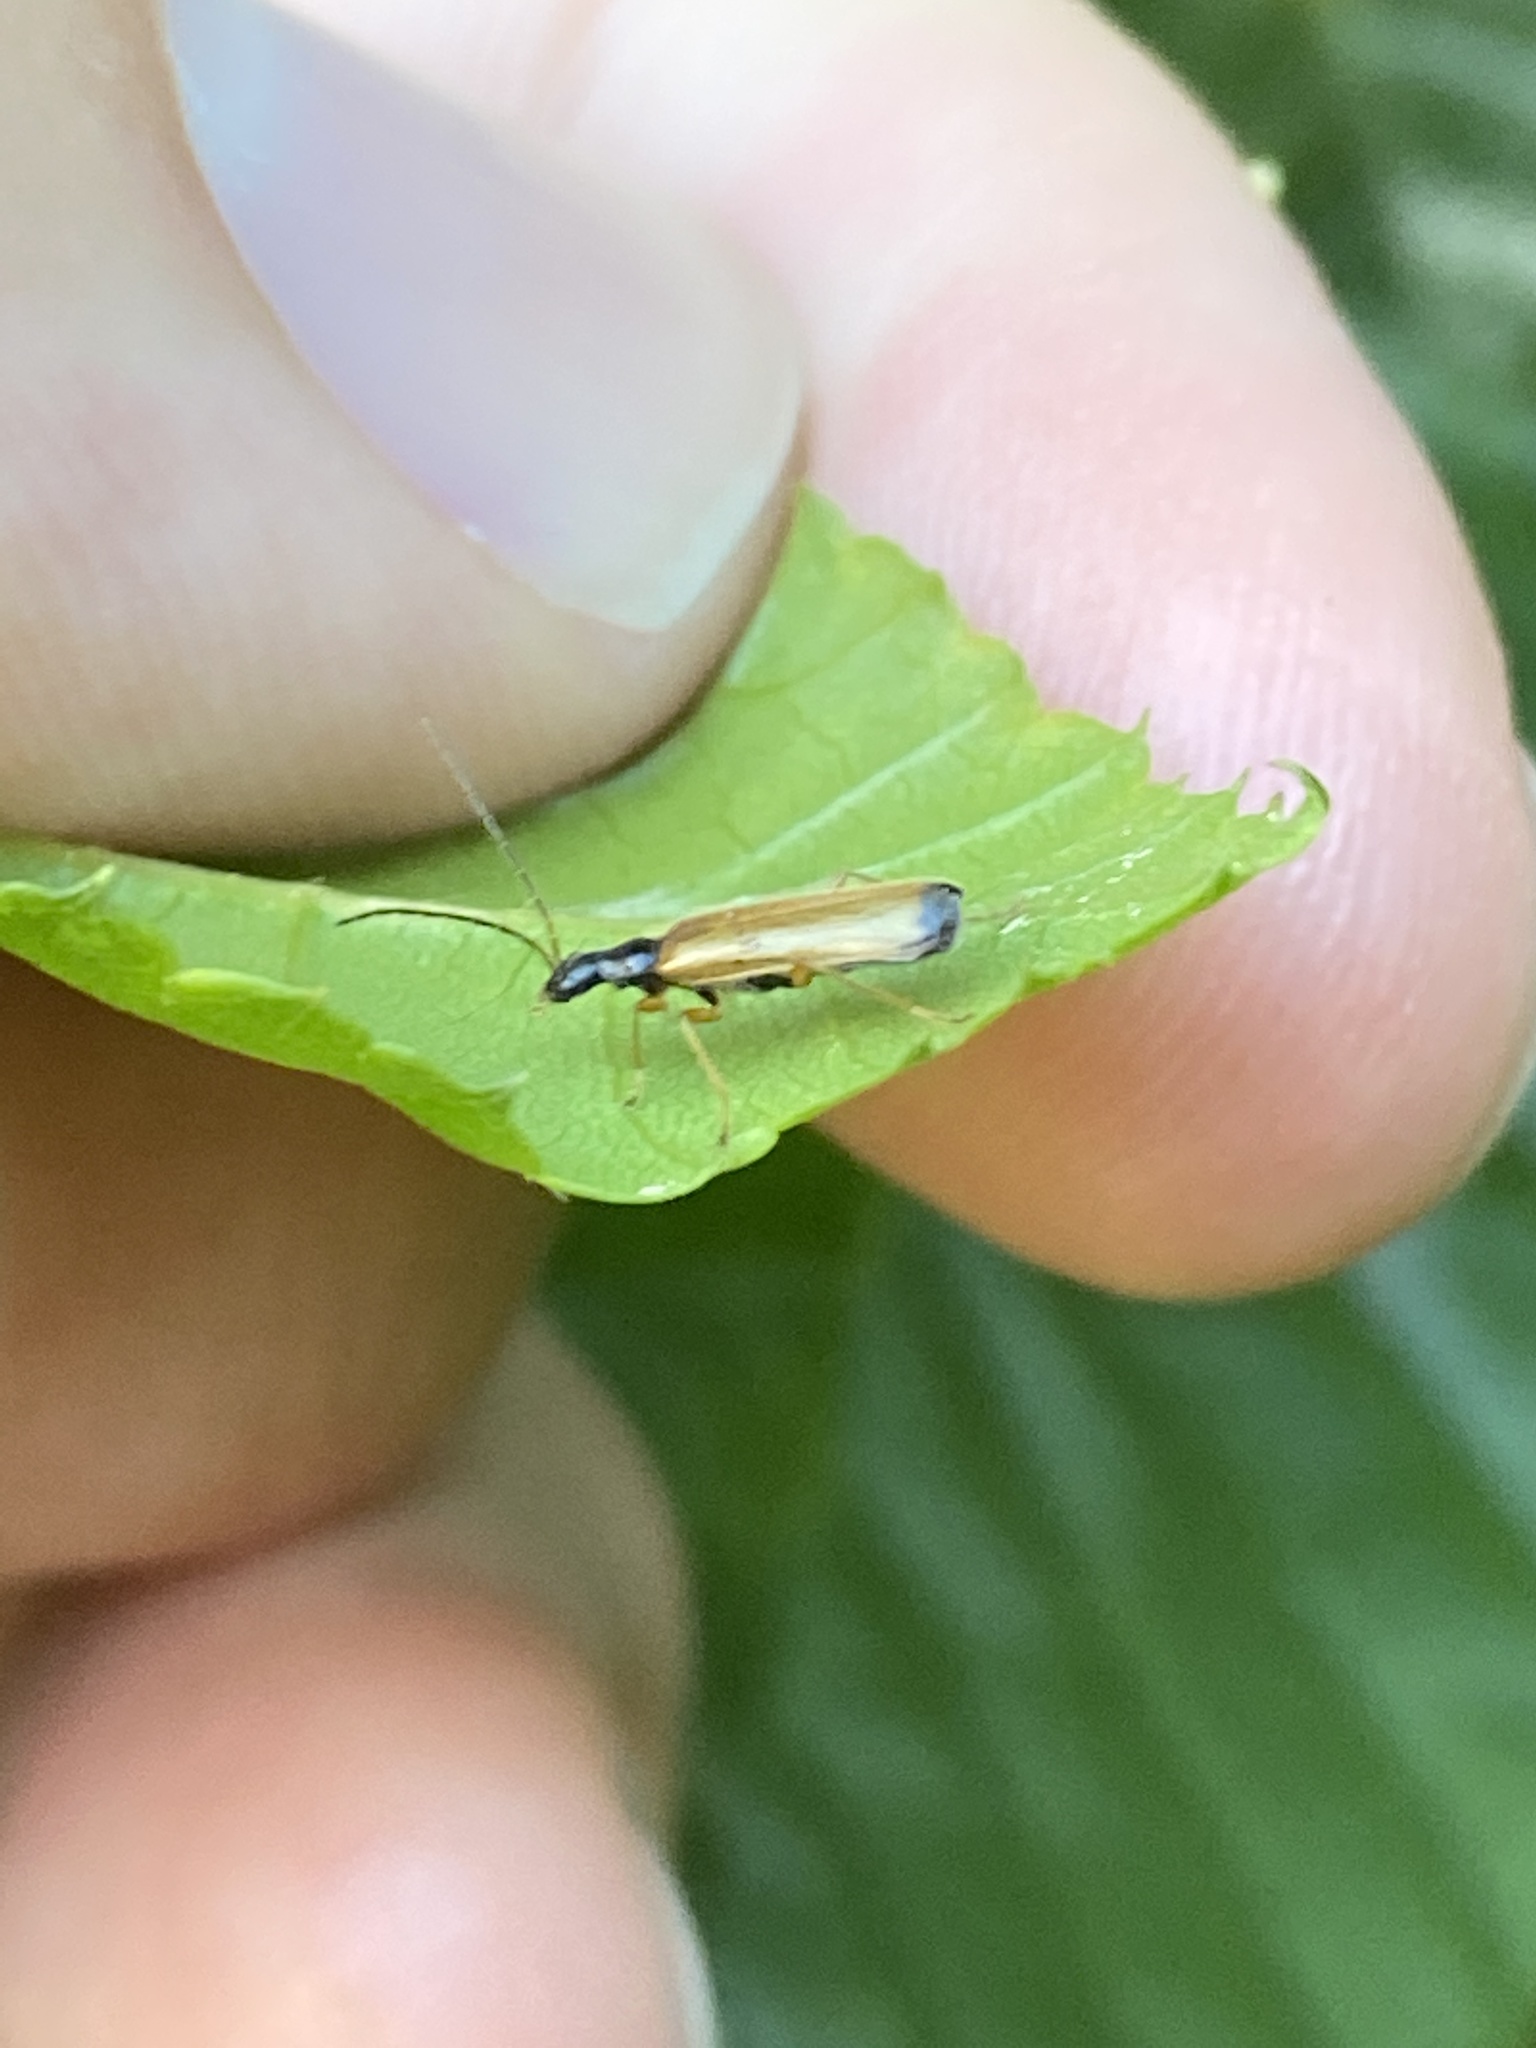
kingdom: Animalia
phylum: Arthropoda
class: Insecta
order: Coleoptera
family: Cantharidae
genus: Rhagonycha
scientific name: Rhagonycha lignosa
